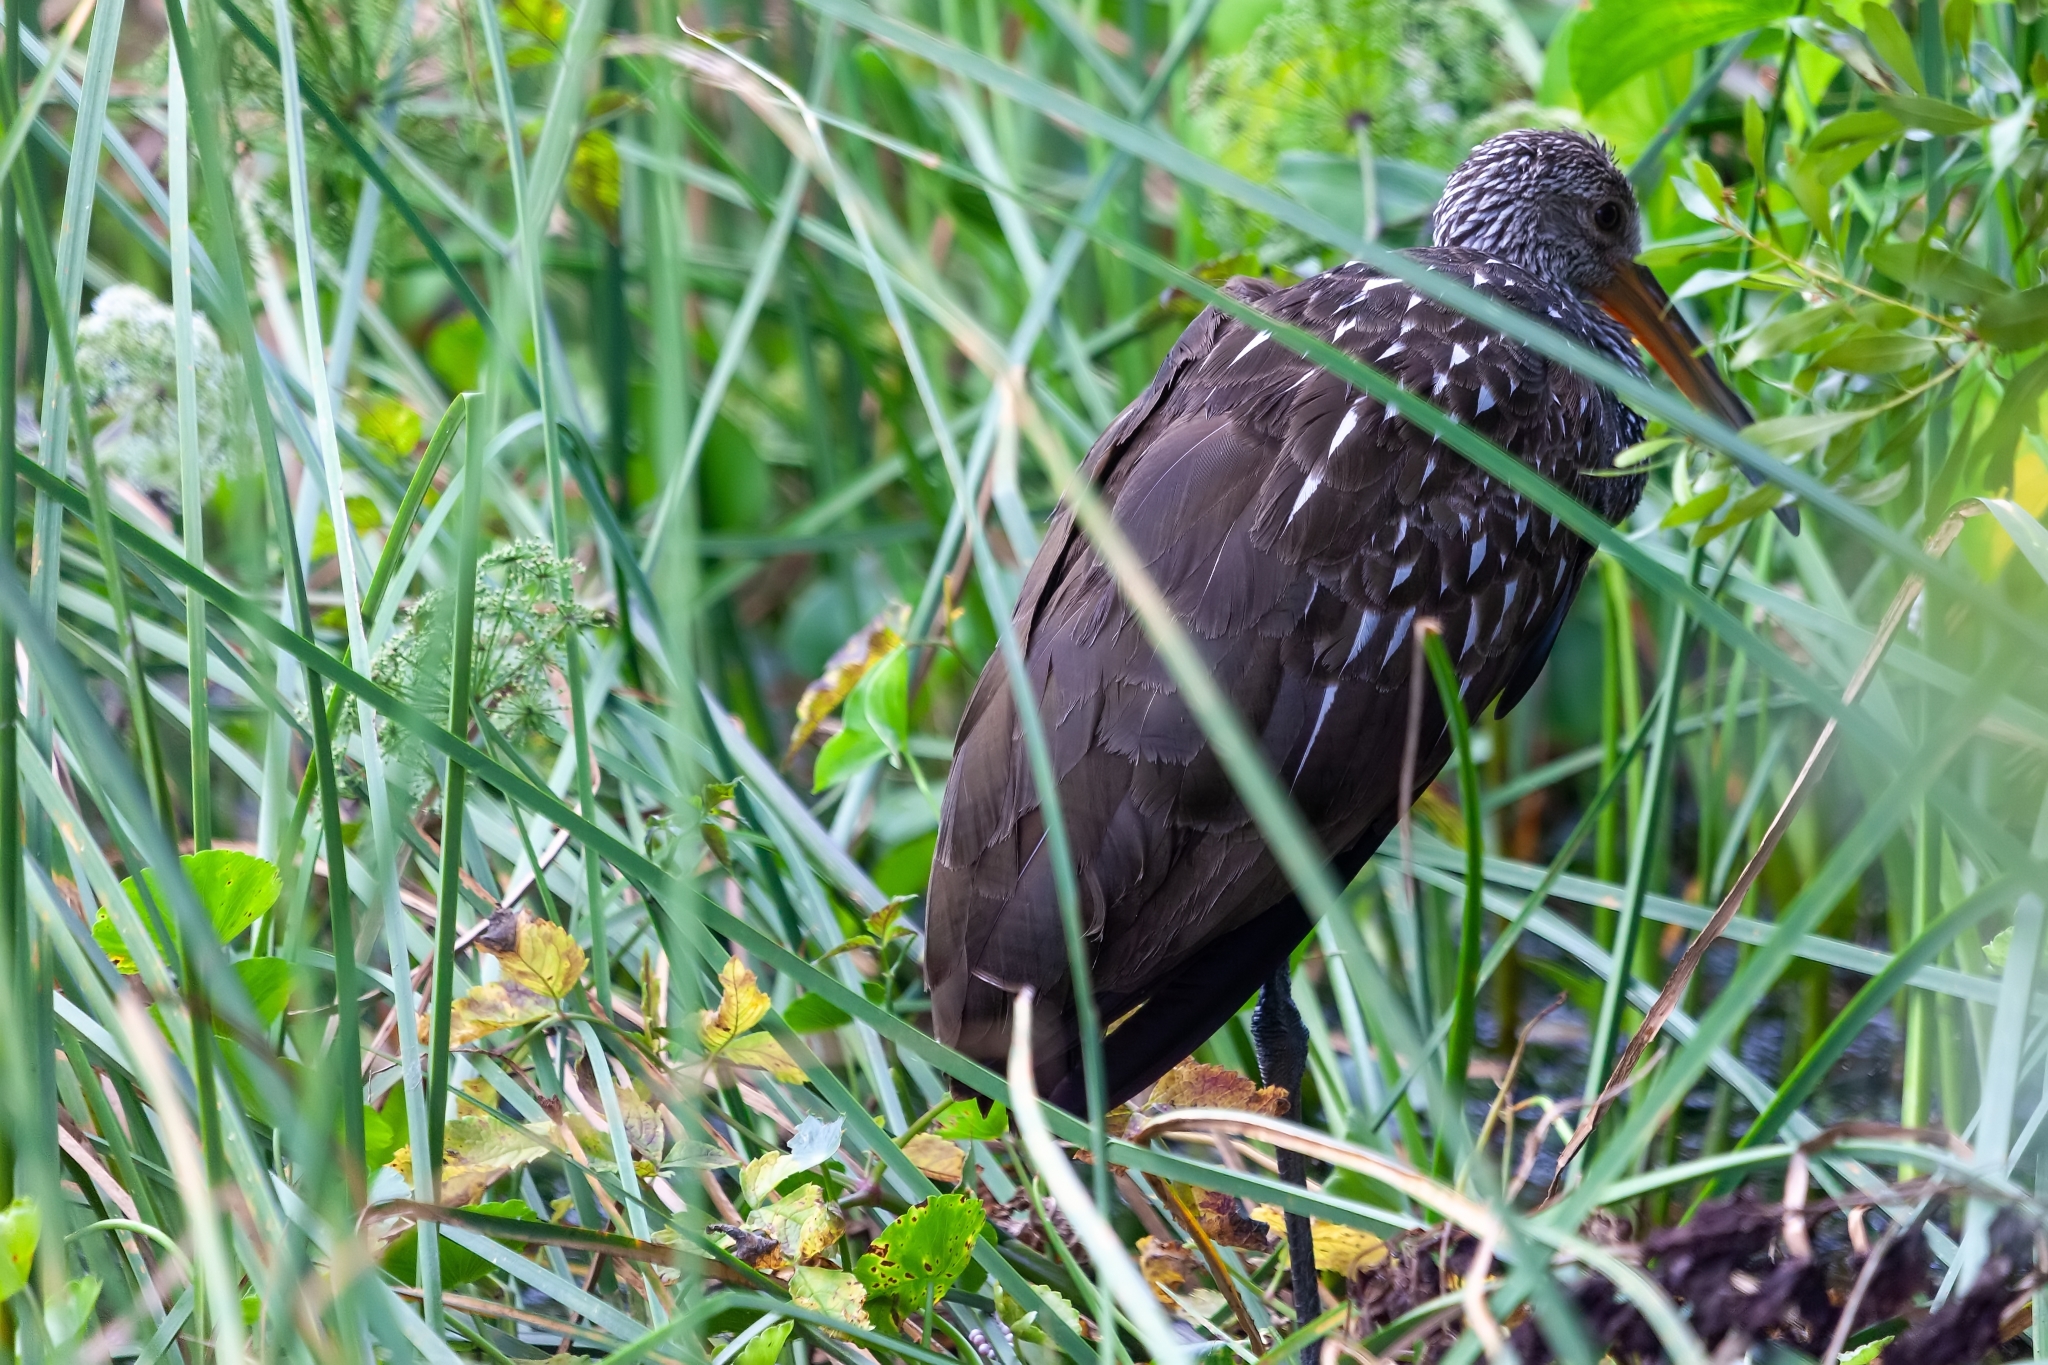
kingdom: Animalia
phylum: Chordata
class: Aves
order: Gruiformes
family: Aramidae
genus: Aramus
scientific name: Aramus guarauna
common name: Limpkin
